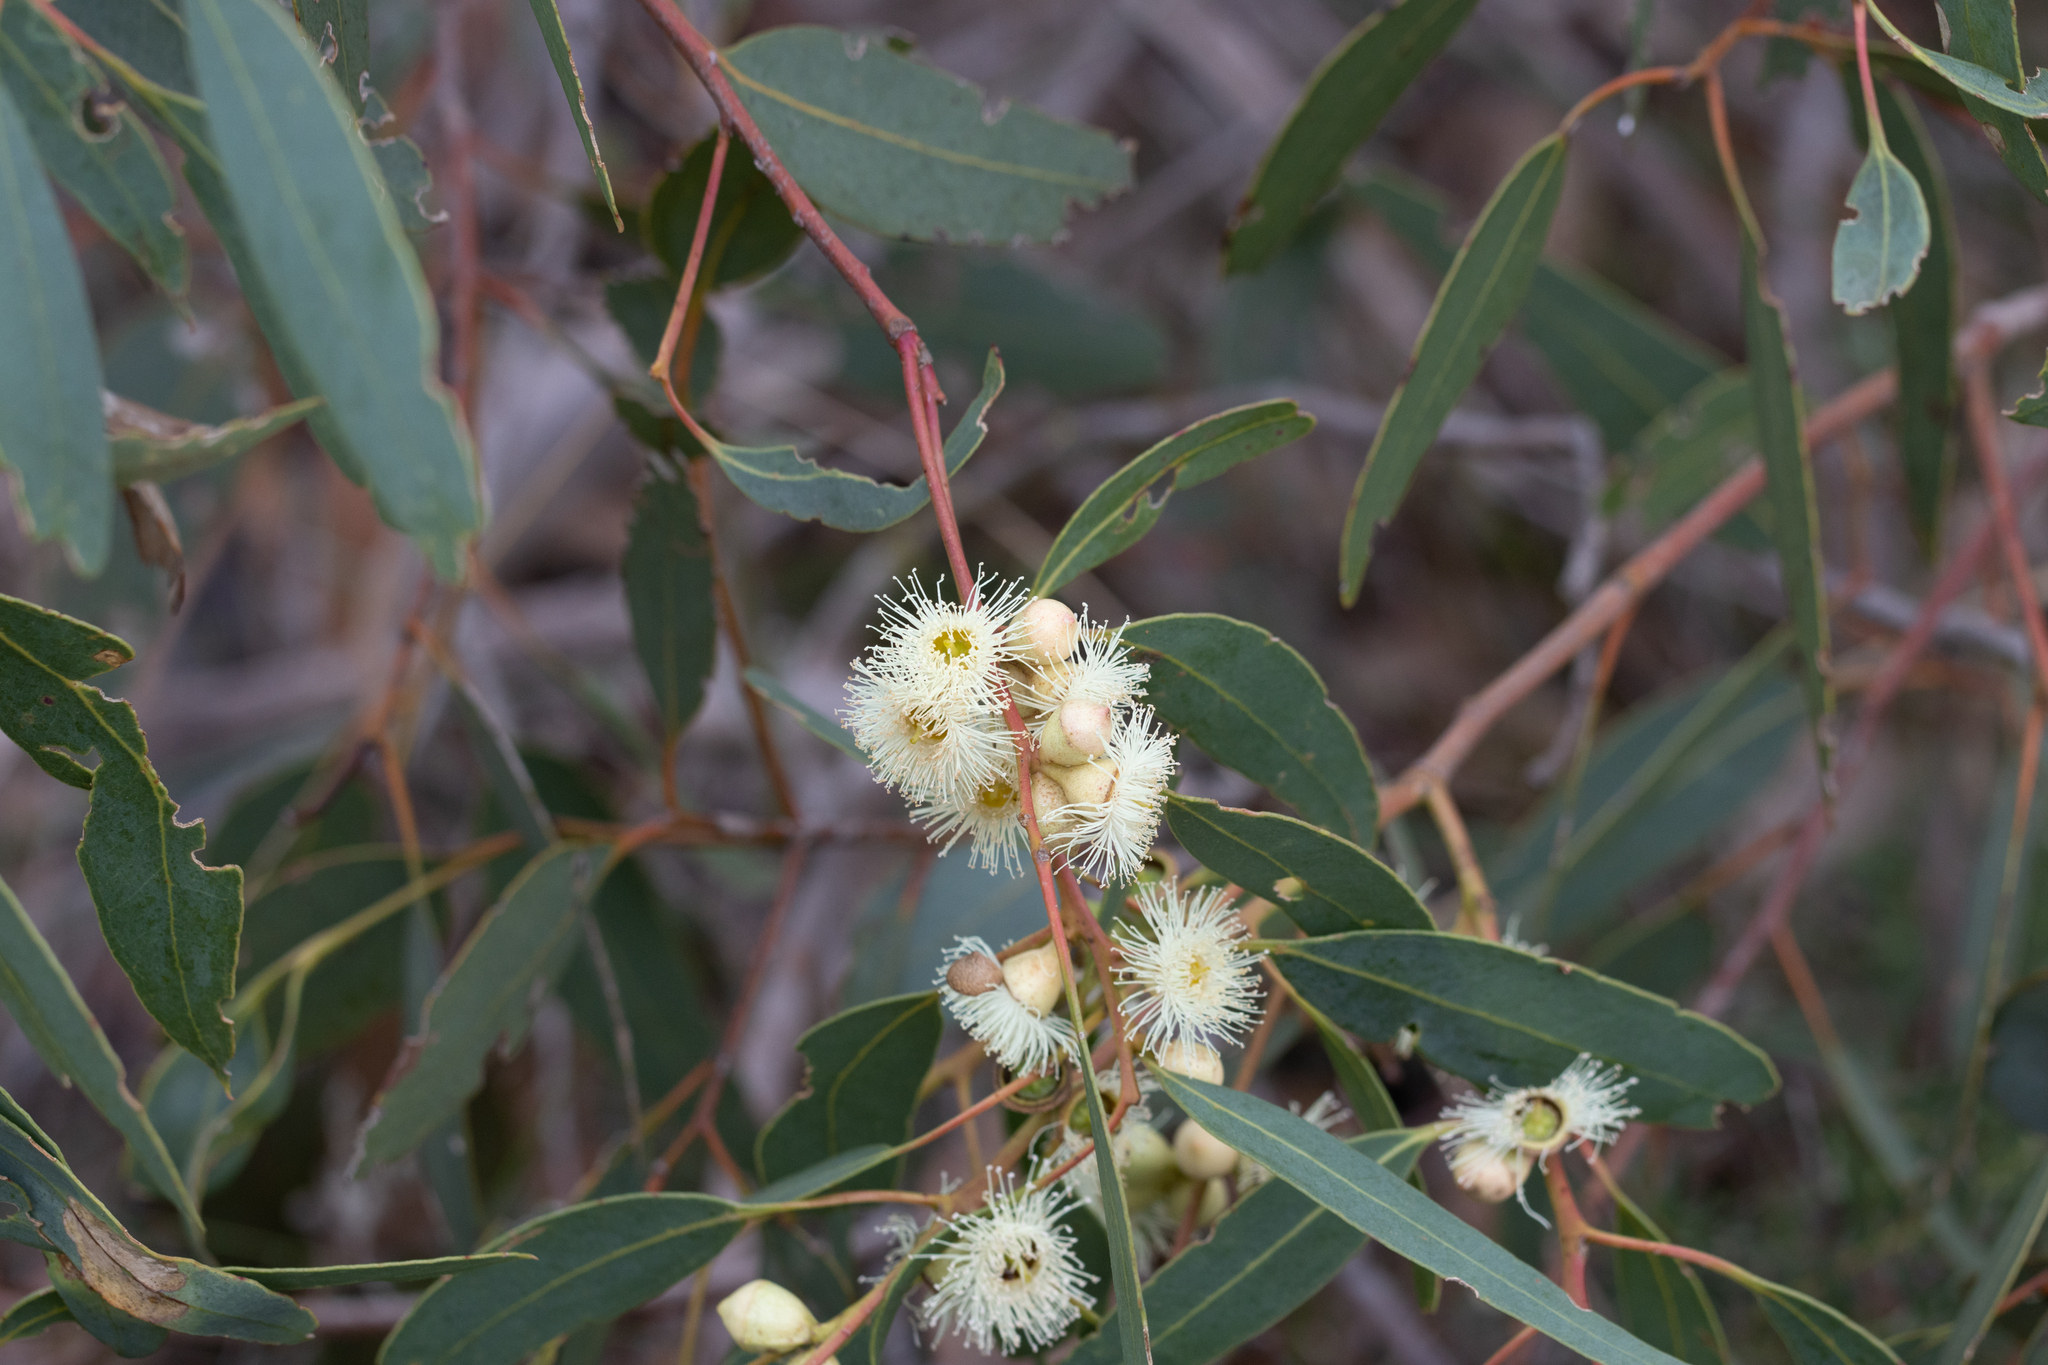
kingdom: Plantae
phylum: Tracheophyta
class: Magnoliopsida
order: Myrtales
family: Myrtaceae
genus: Eucalyptus
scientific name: Eucalyptus cosmophylla
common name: Bog-gum
